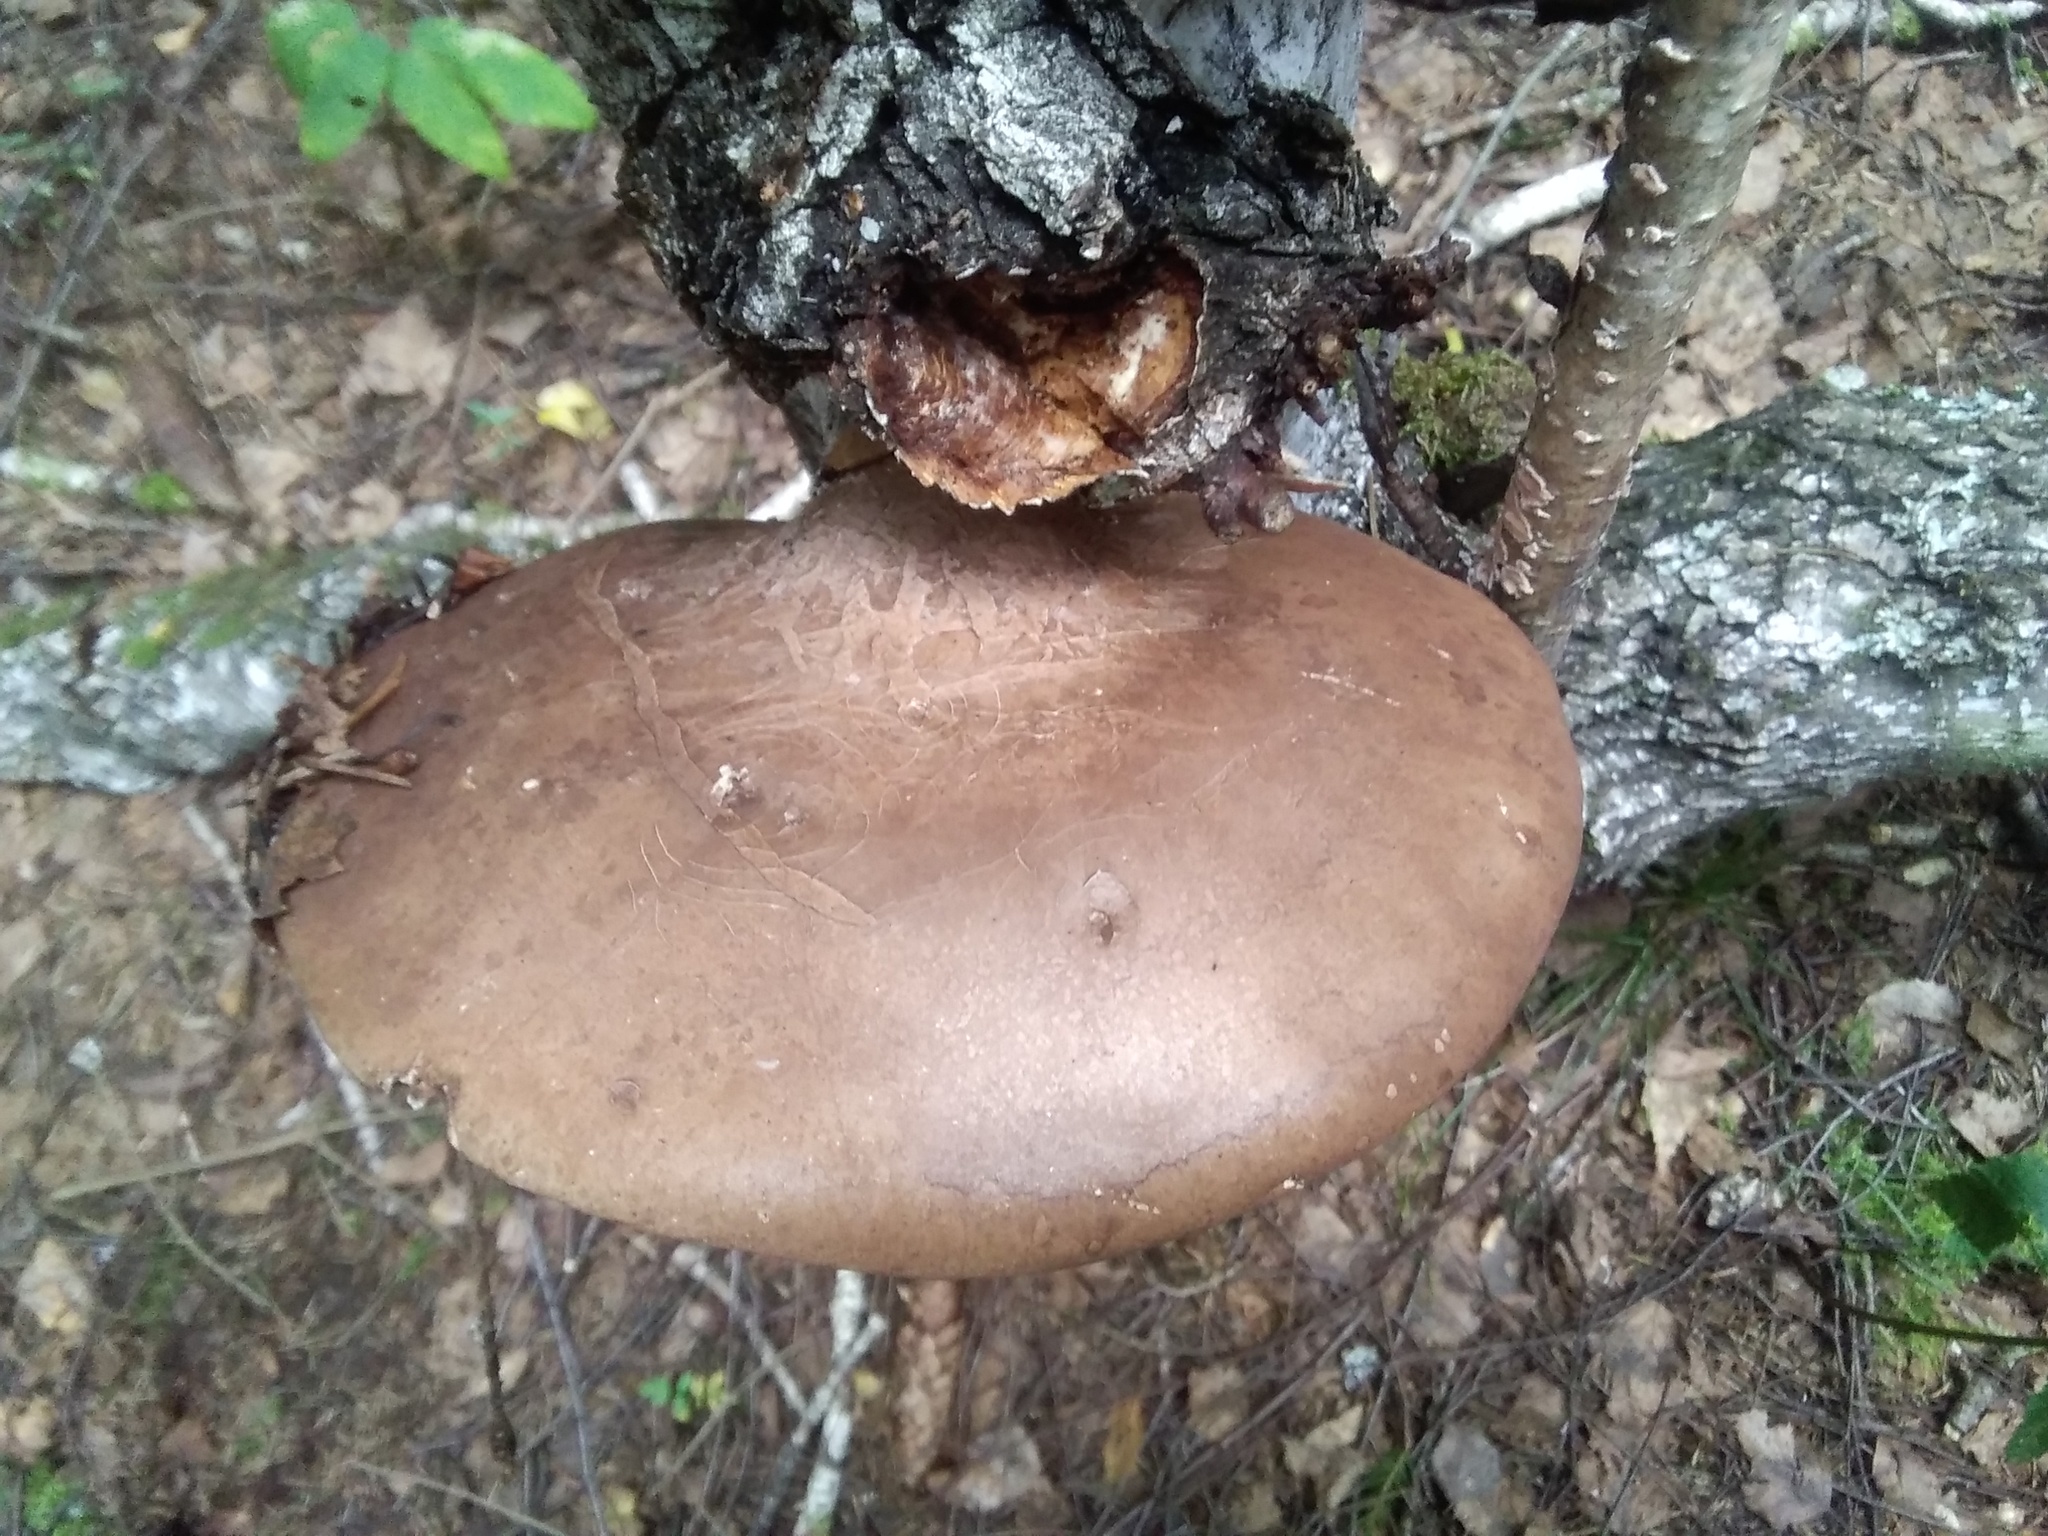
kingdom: Fungi
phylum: Basidiomycota
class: Agaricomycetes
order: Polyporales
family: Fomitopsidaceae
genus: Fomitopsis
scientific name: Fomitopsis betulina
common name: Birch polypore
